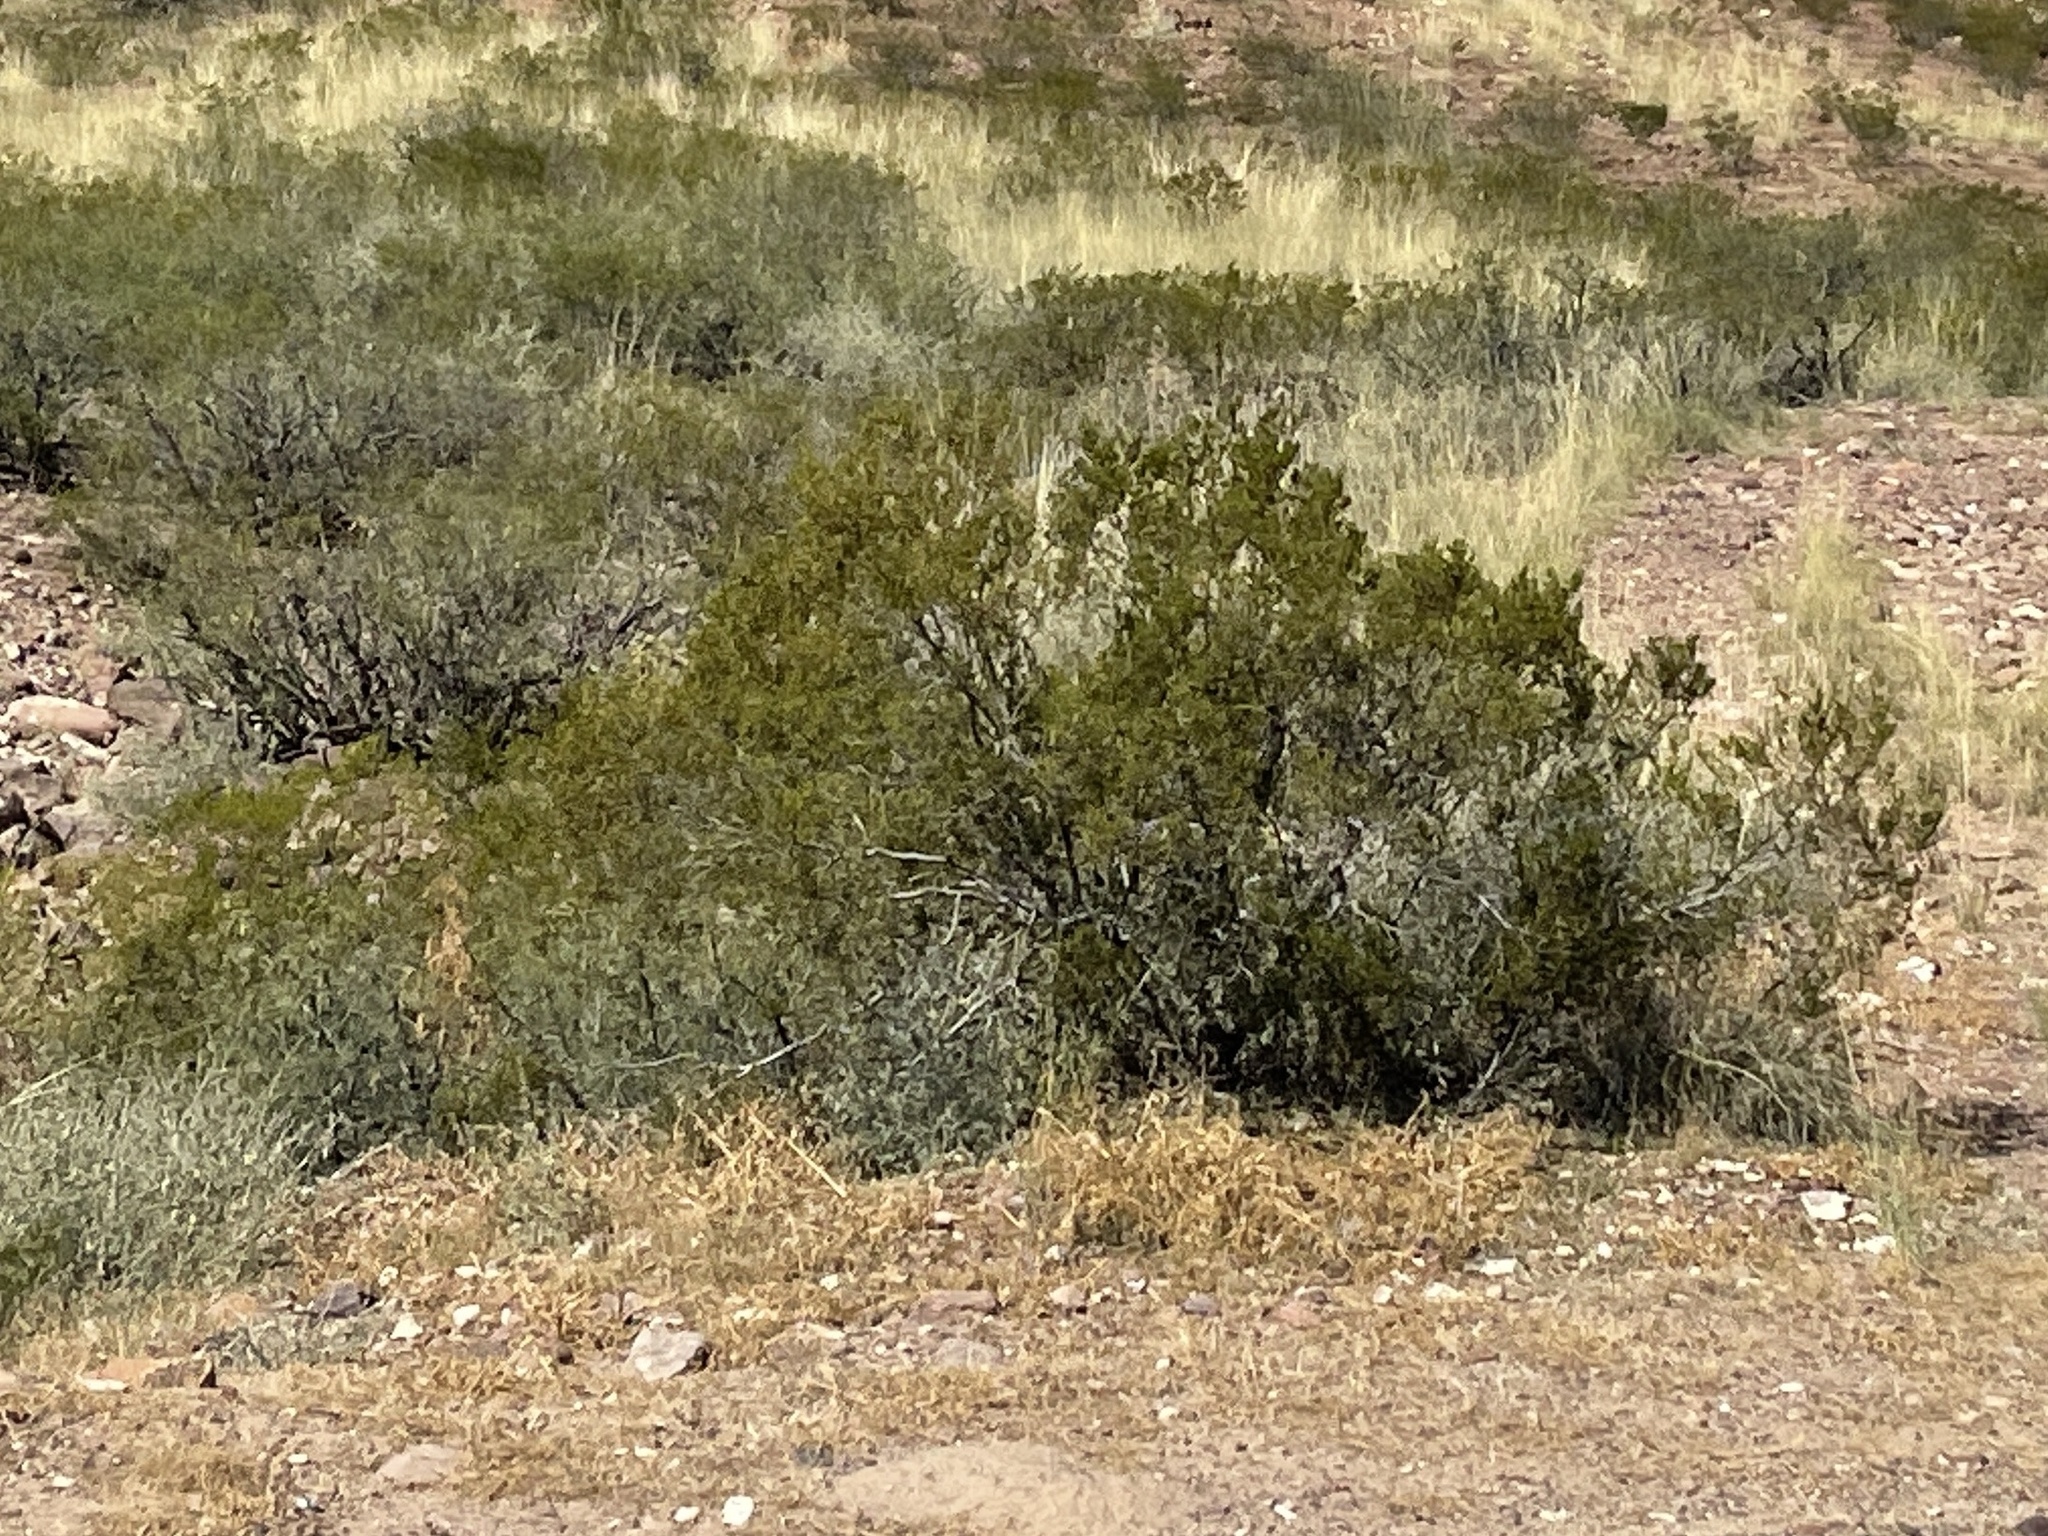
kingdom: Plantae
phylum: Tracheophyta
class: Magnoliopsida
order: Zygophyllales
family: Zygophyllaceae
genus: Larrea
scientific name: Larrea tridentata
